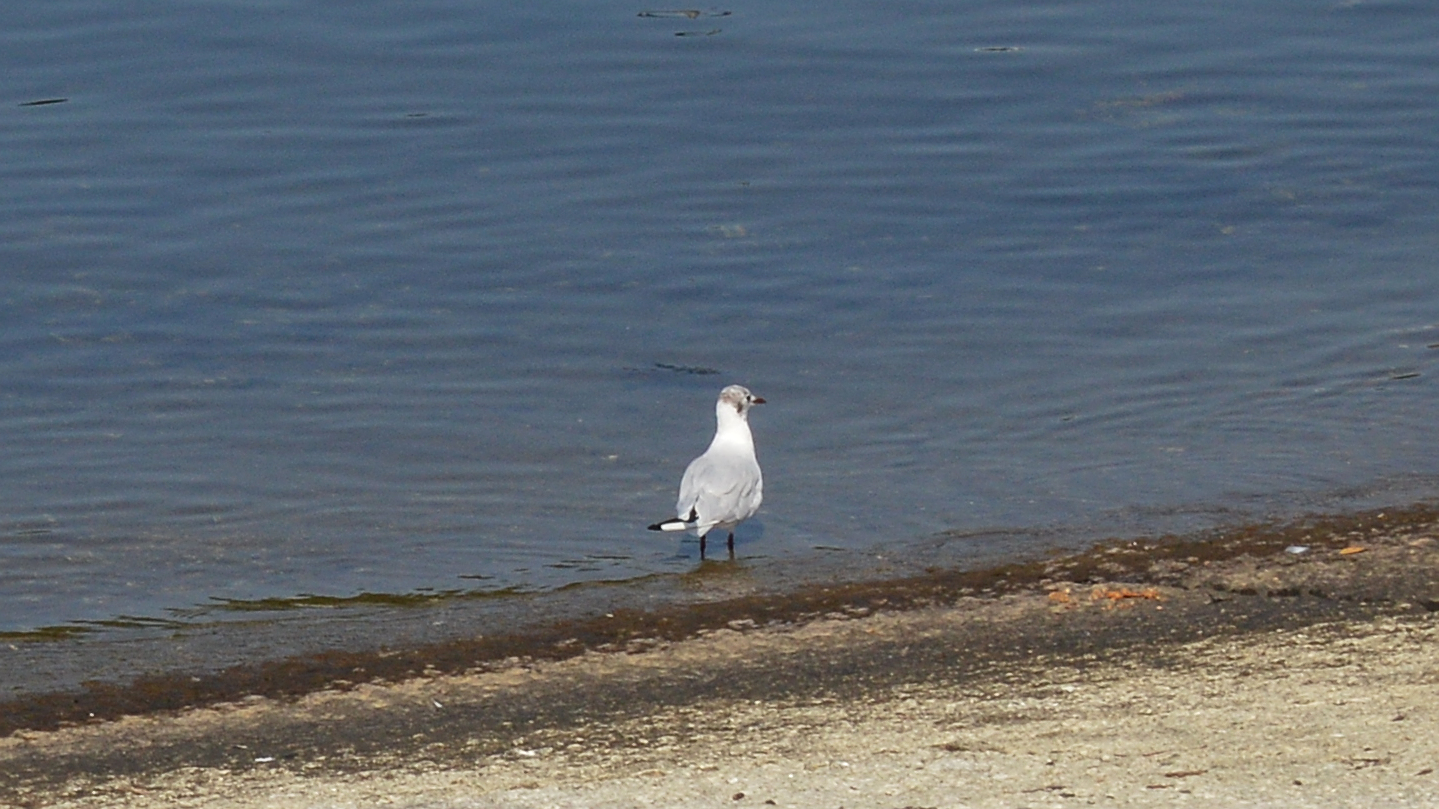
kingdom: Animalia
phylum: Chordata
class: Aves
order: Charadriiformes
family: Laridae
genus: Chroicocephalus
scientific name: Chroicocephalus ridibundus
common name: Black-headed gull
